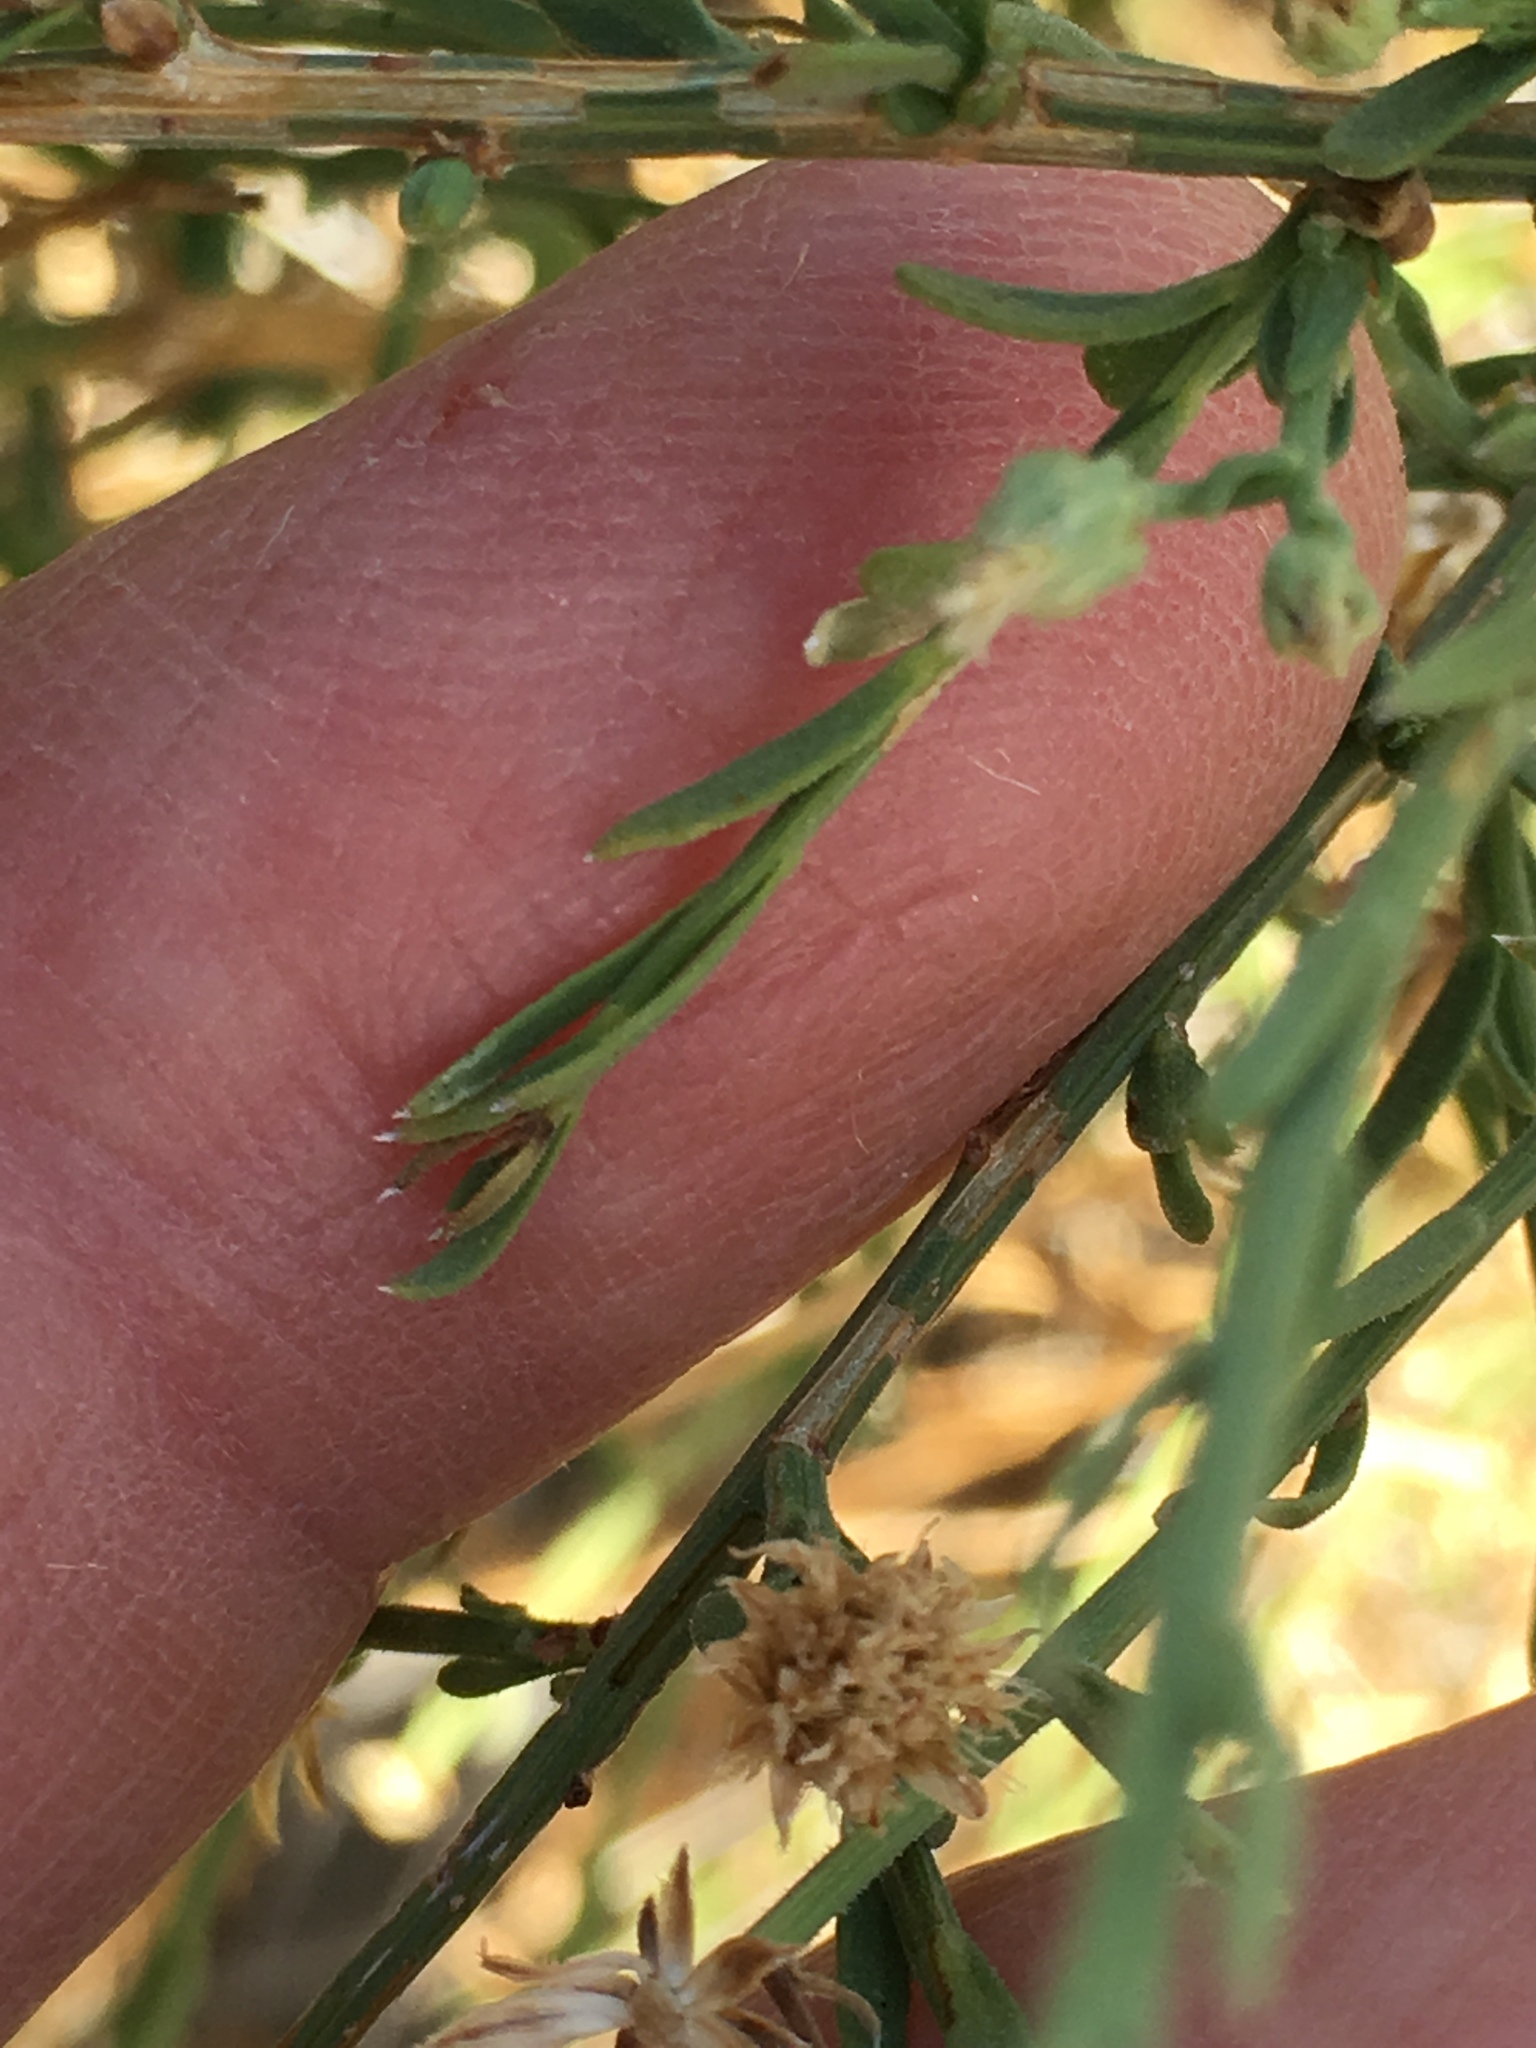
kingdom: Plantae
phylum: Tracheophyta
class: Magnoliopsida
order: Asterales
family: Asteraceae
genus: Baccharis
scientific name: Baccharis brachyphylla
